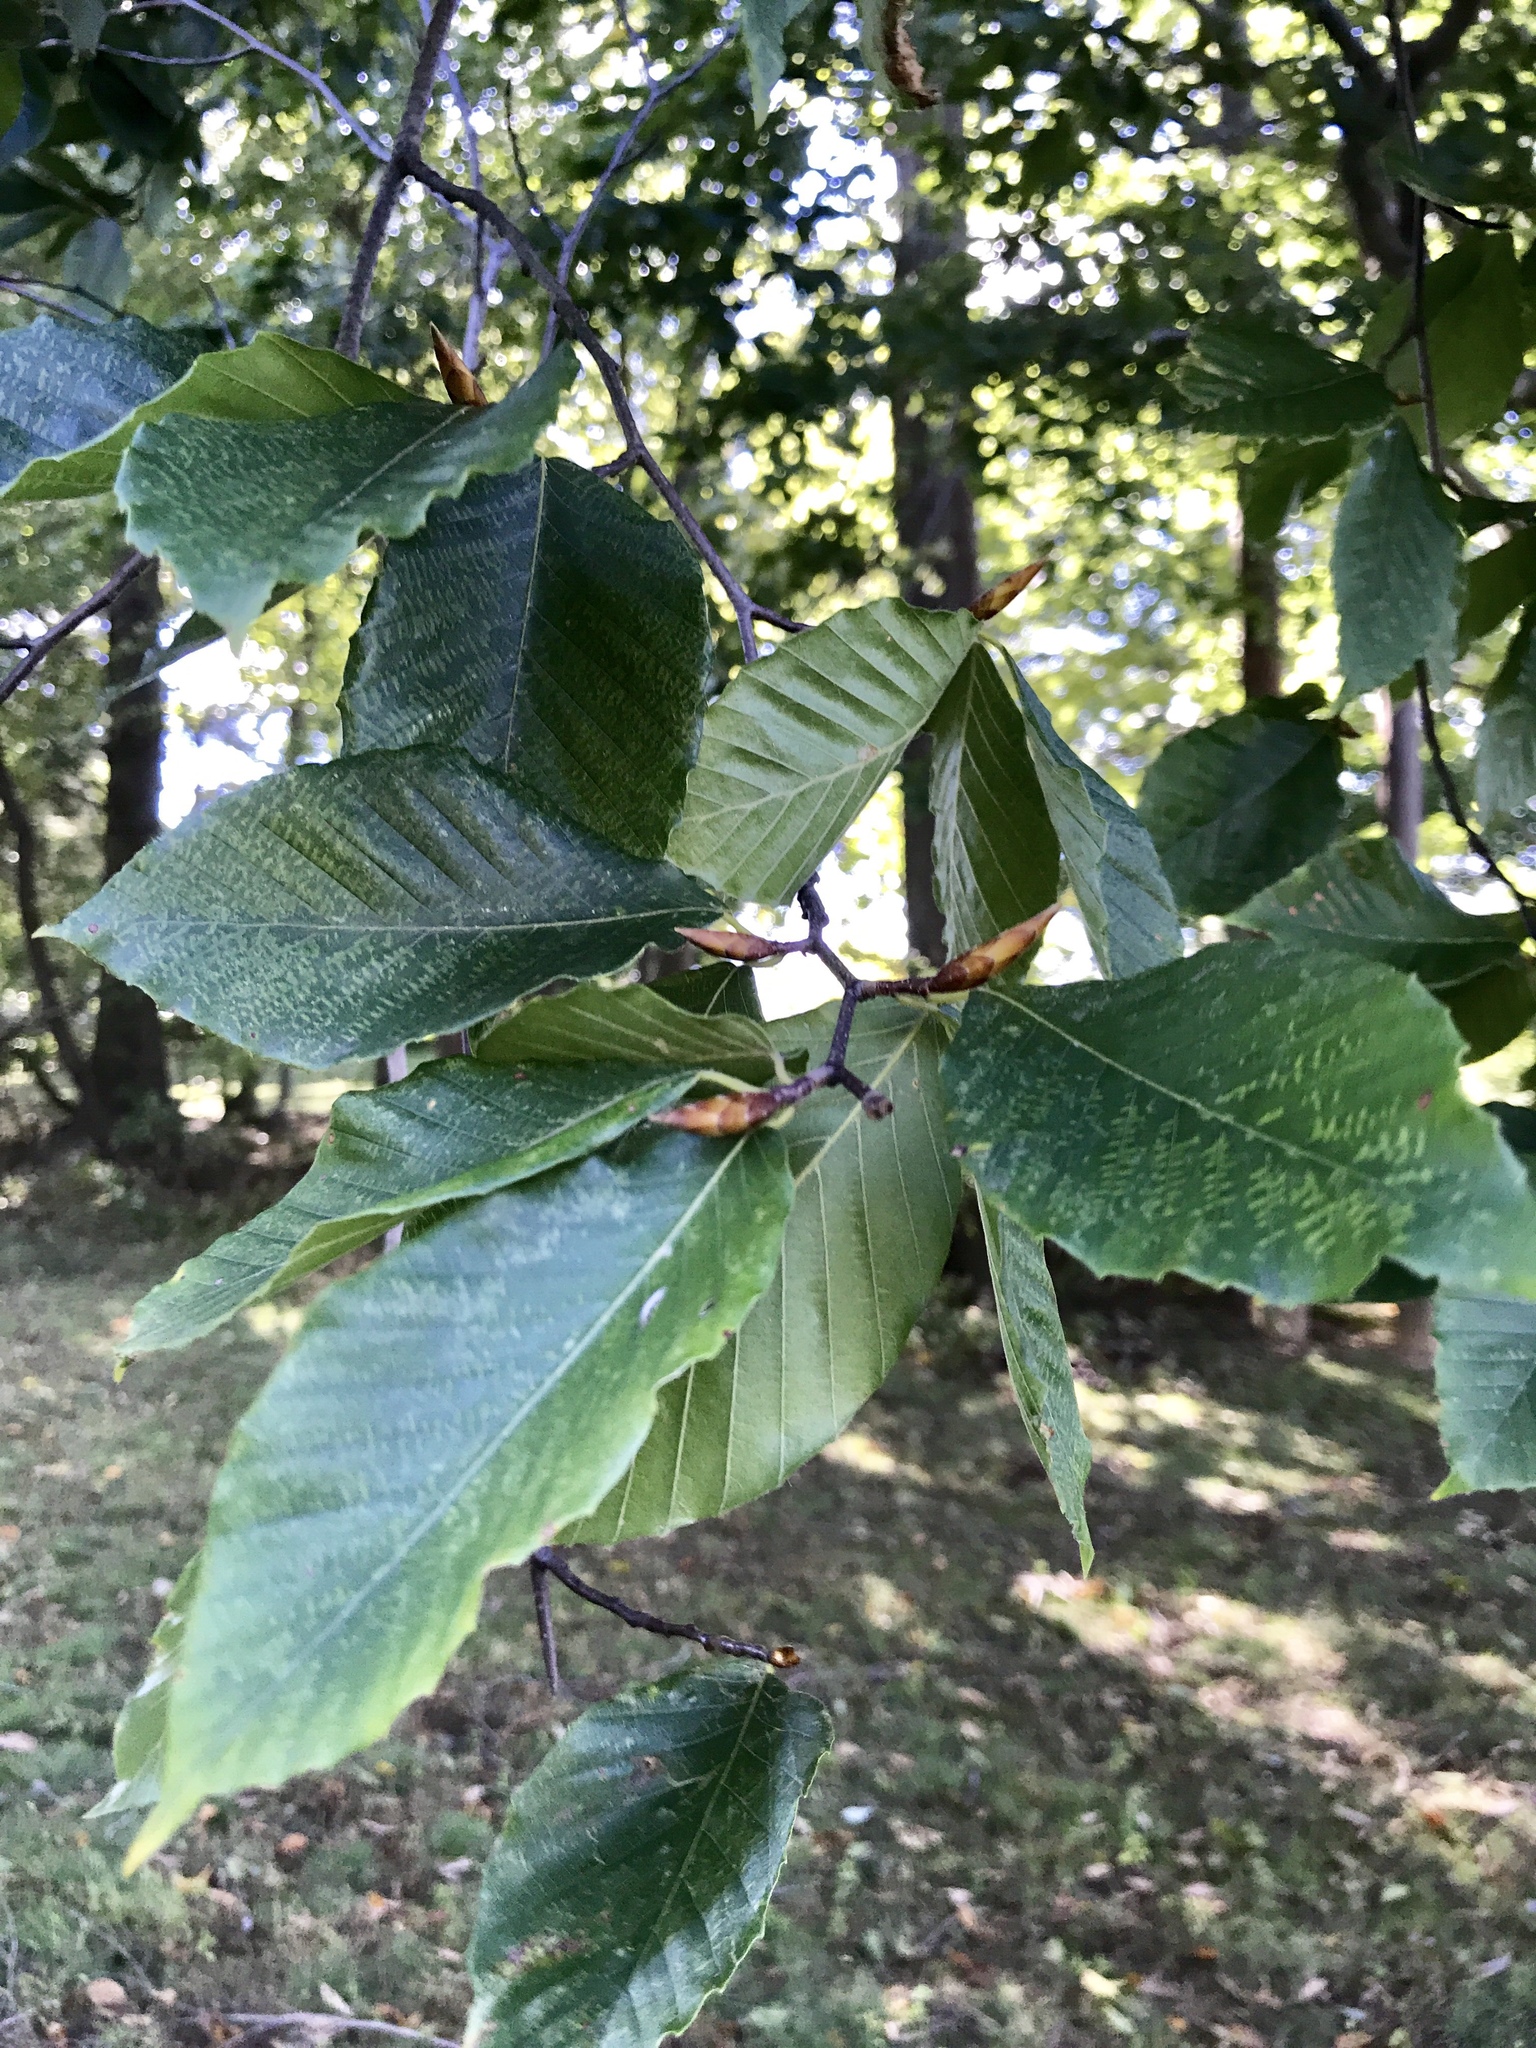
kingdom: Plantae
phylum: Tracheophyta
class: Magnoliopsida
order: Fagales
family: Fagaceae
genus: Fagus
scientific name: Fagus grandifolia
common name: American beech
